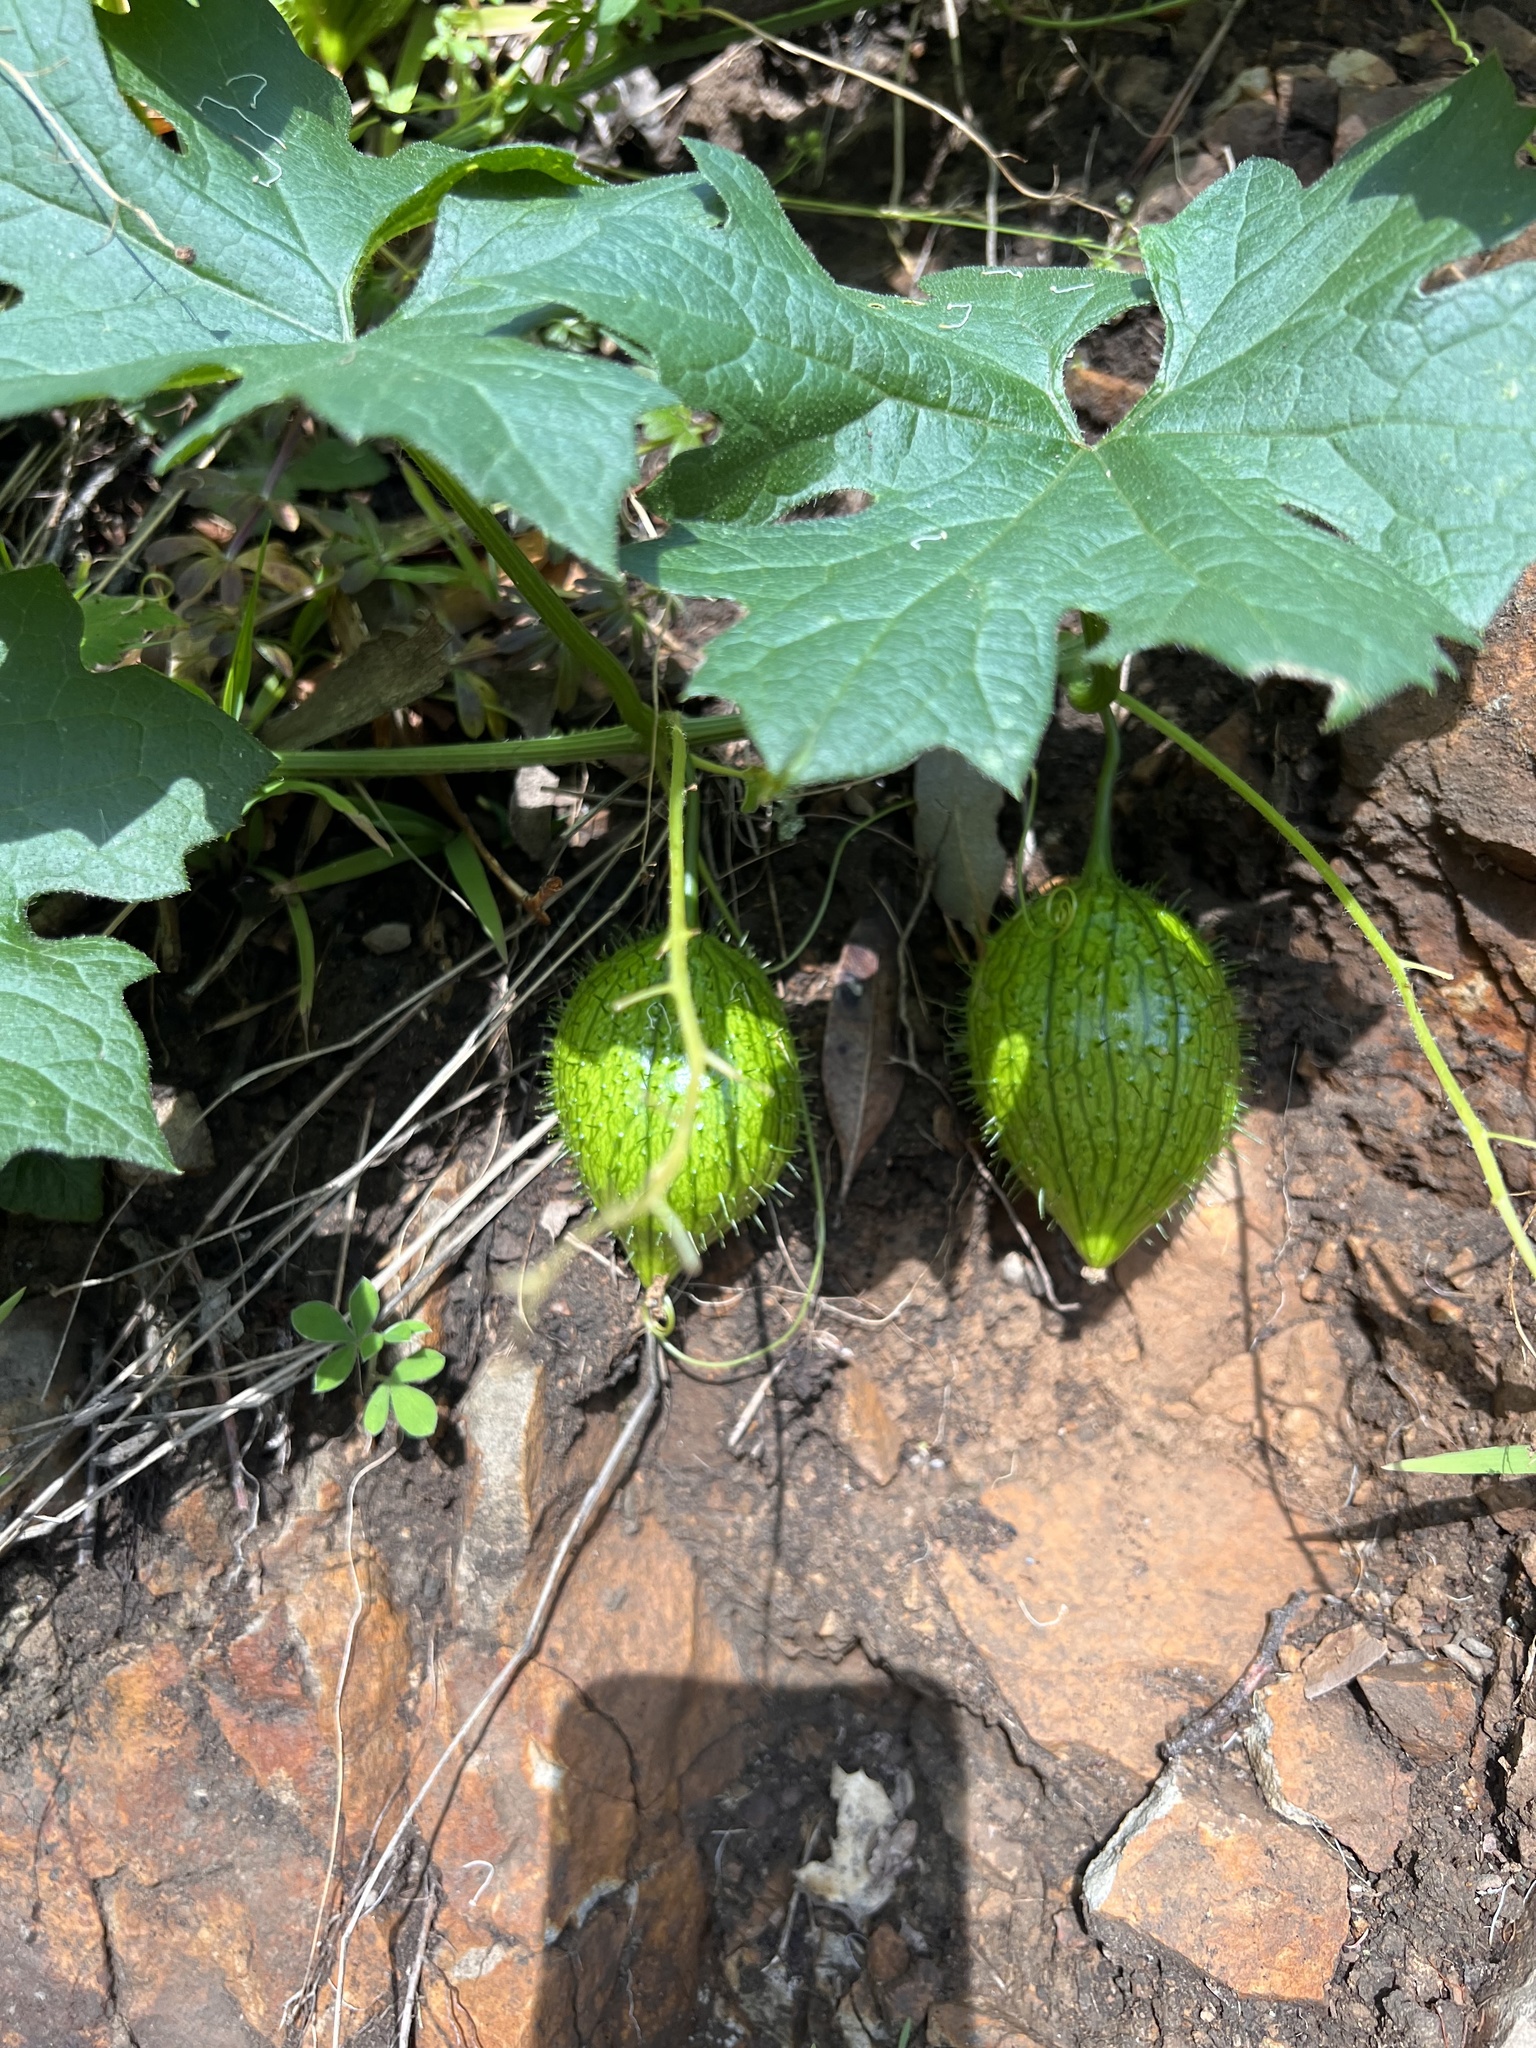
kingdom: Plantae
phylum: Tracheophyta
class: Magnoliopsida
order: Cucurbitales
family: Cucurbitaceae
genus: Marah
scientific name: Marah oregana
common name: Coastal manroot
